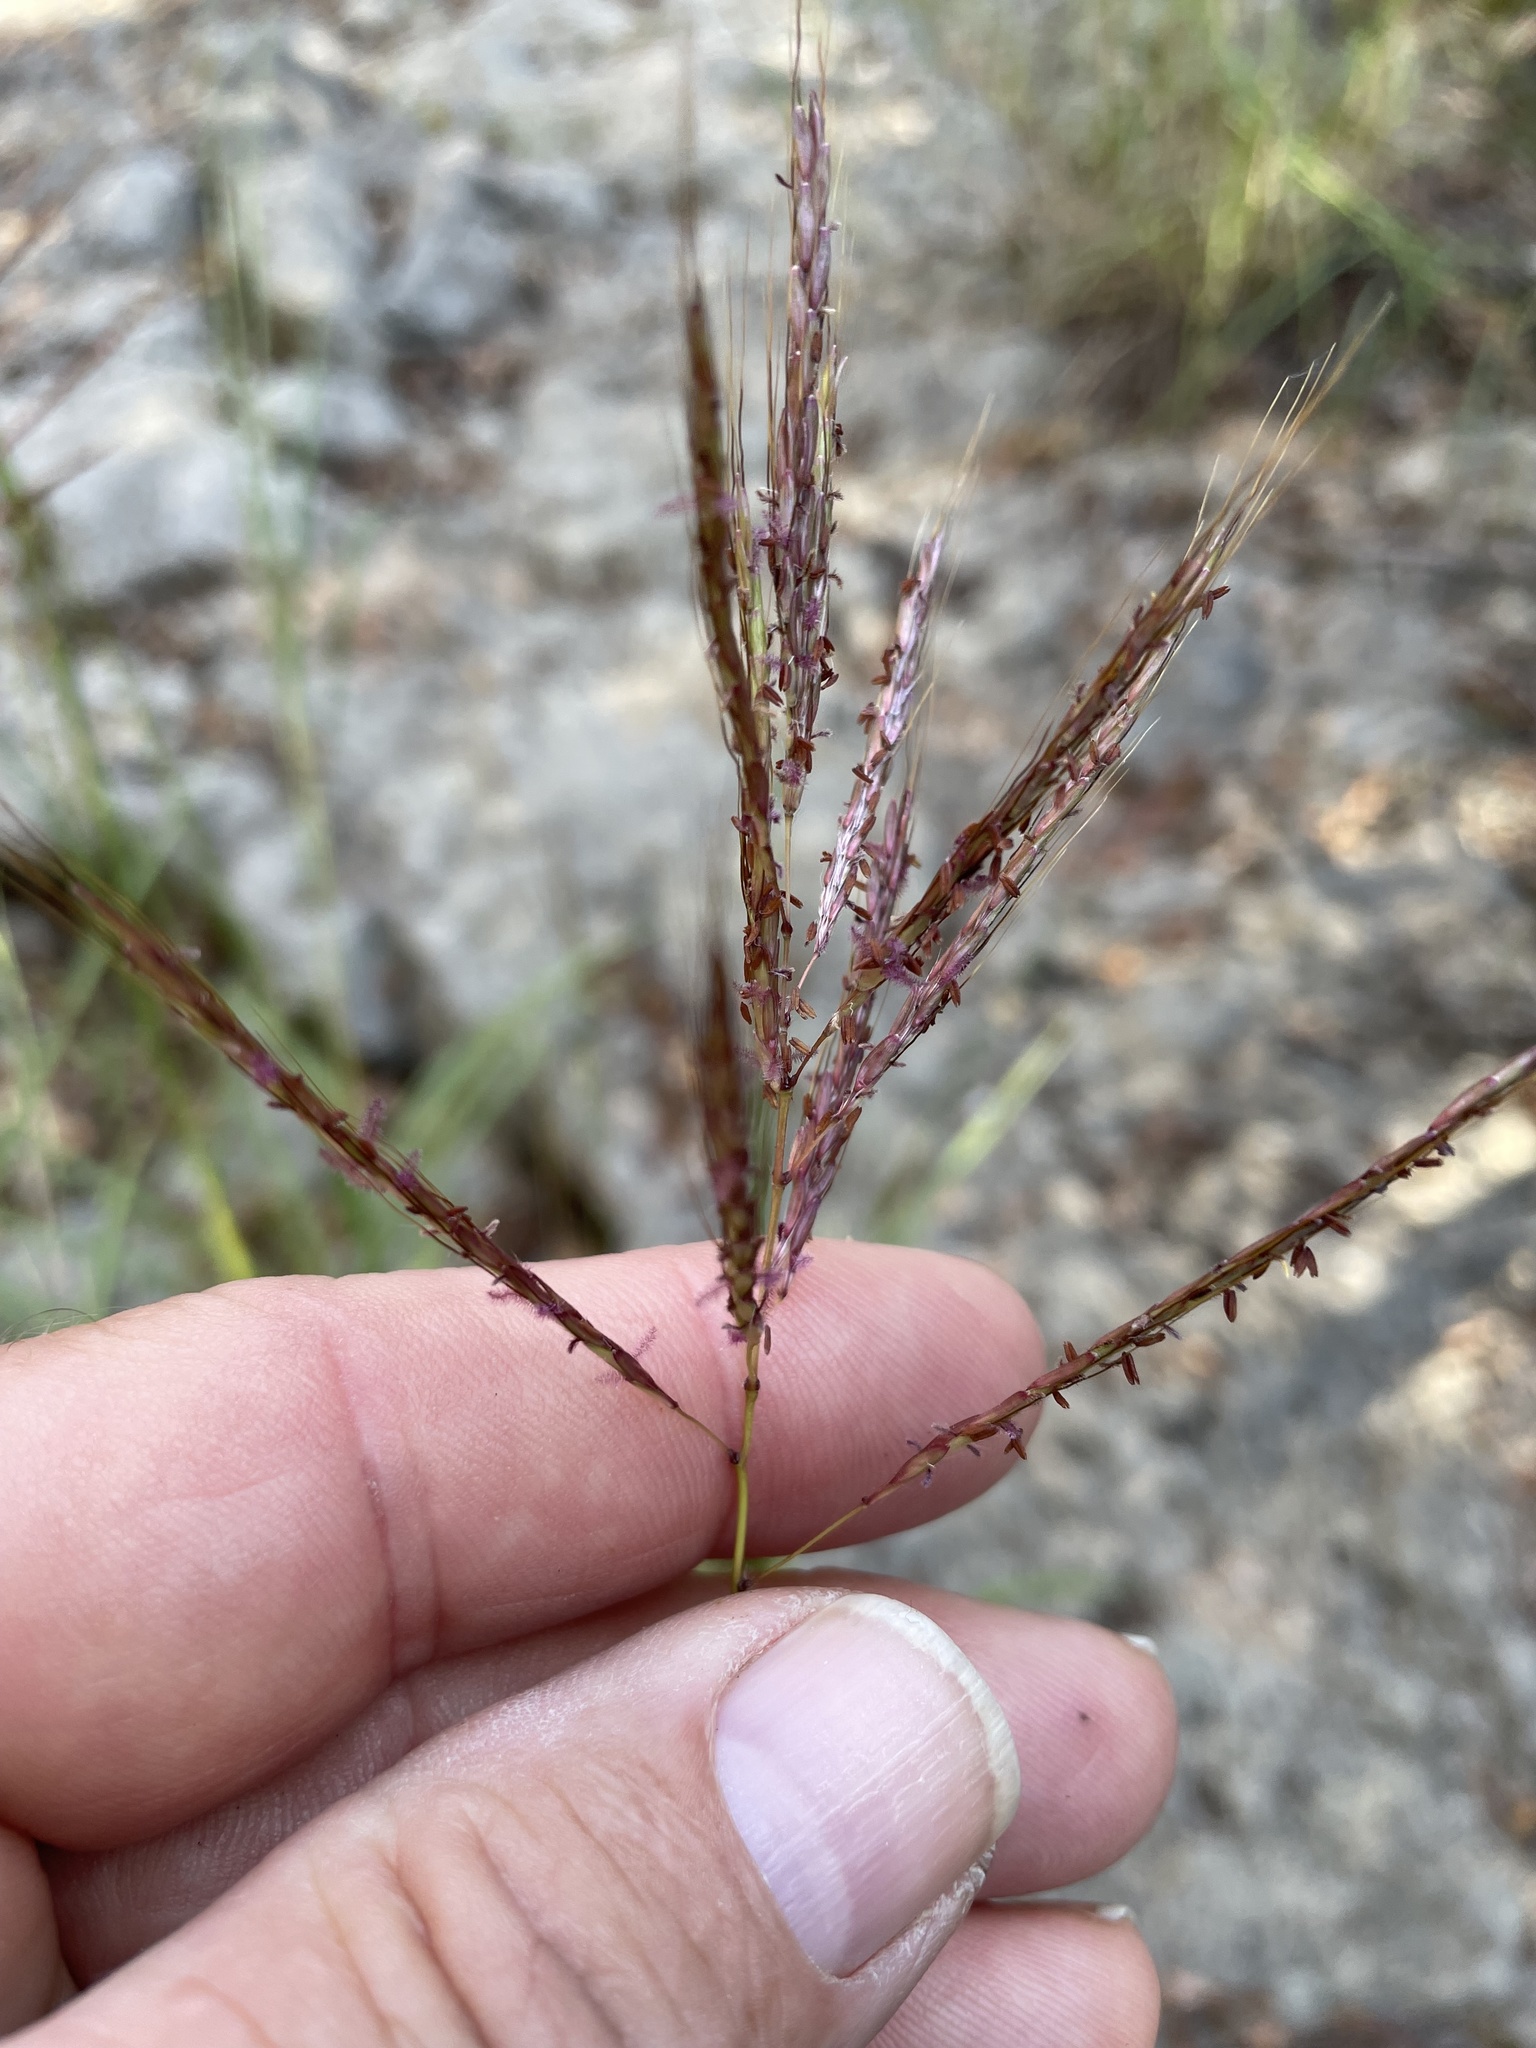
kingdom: Plantae
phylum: Tracheophyta
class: Liliopsida
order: Poales
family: Poaceae
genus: Bothriochloa
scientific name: Bothriochloa ischaemum
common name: Yellow bluestem
